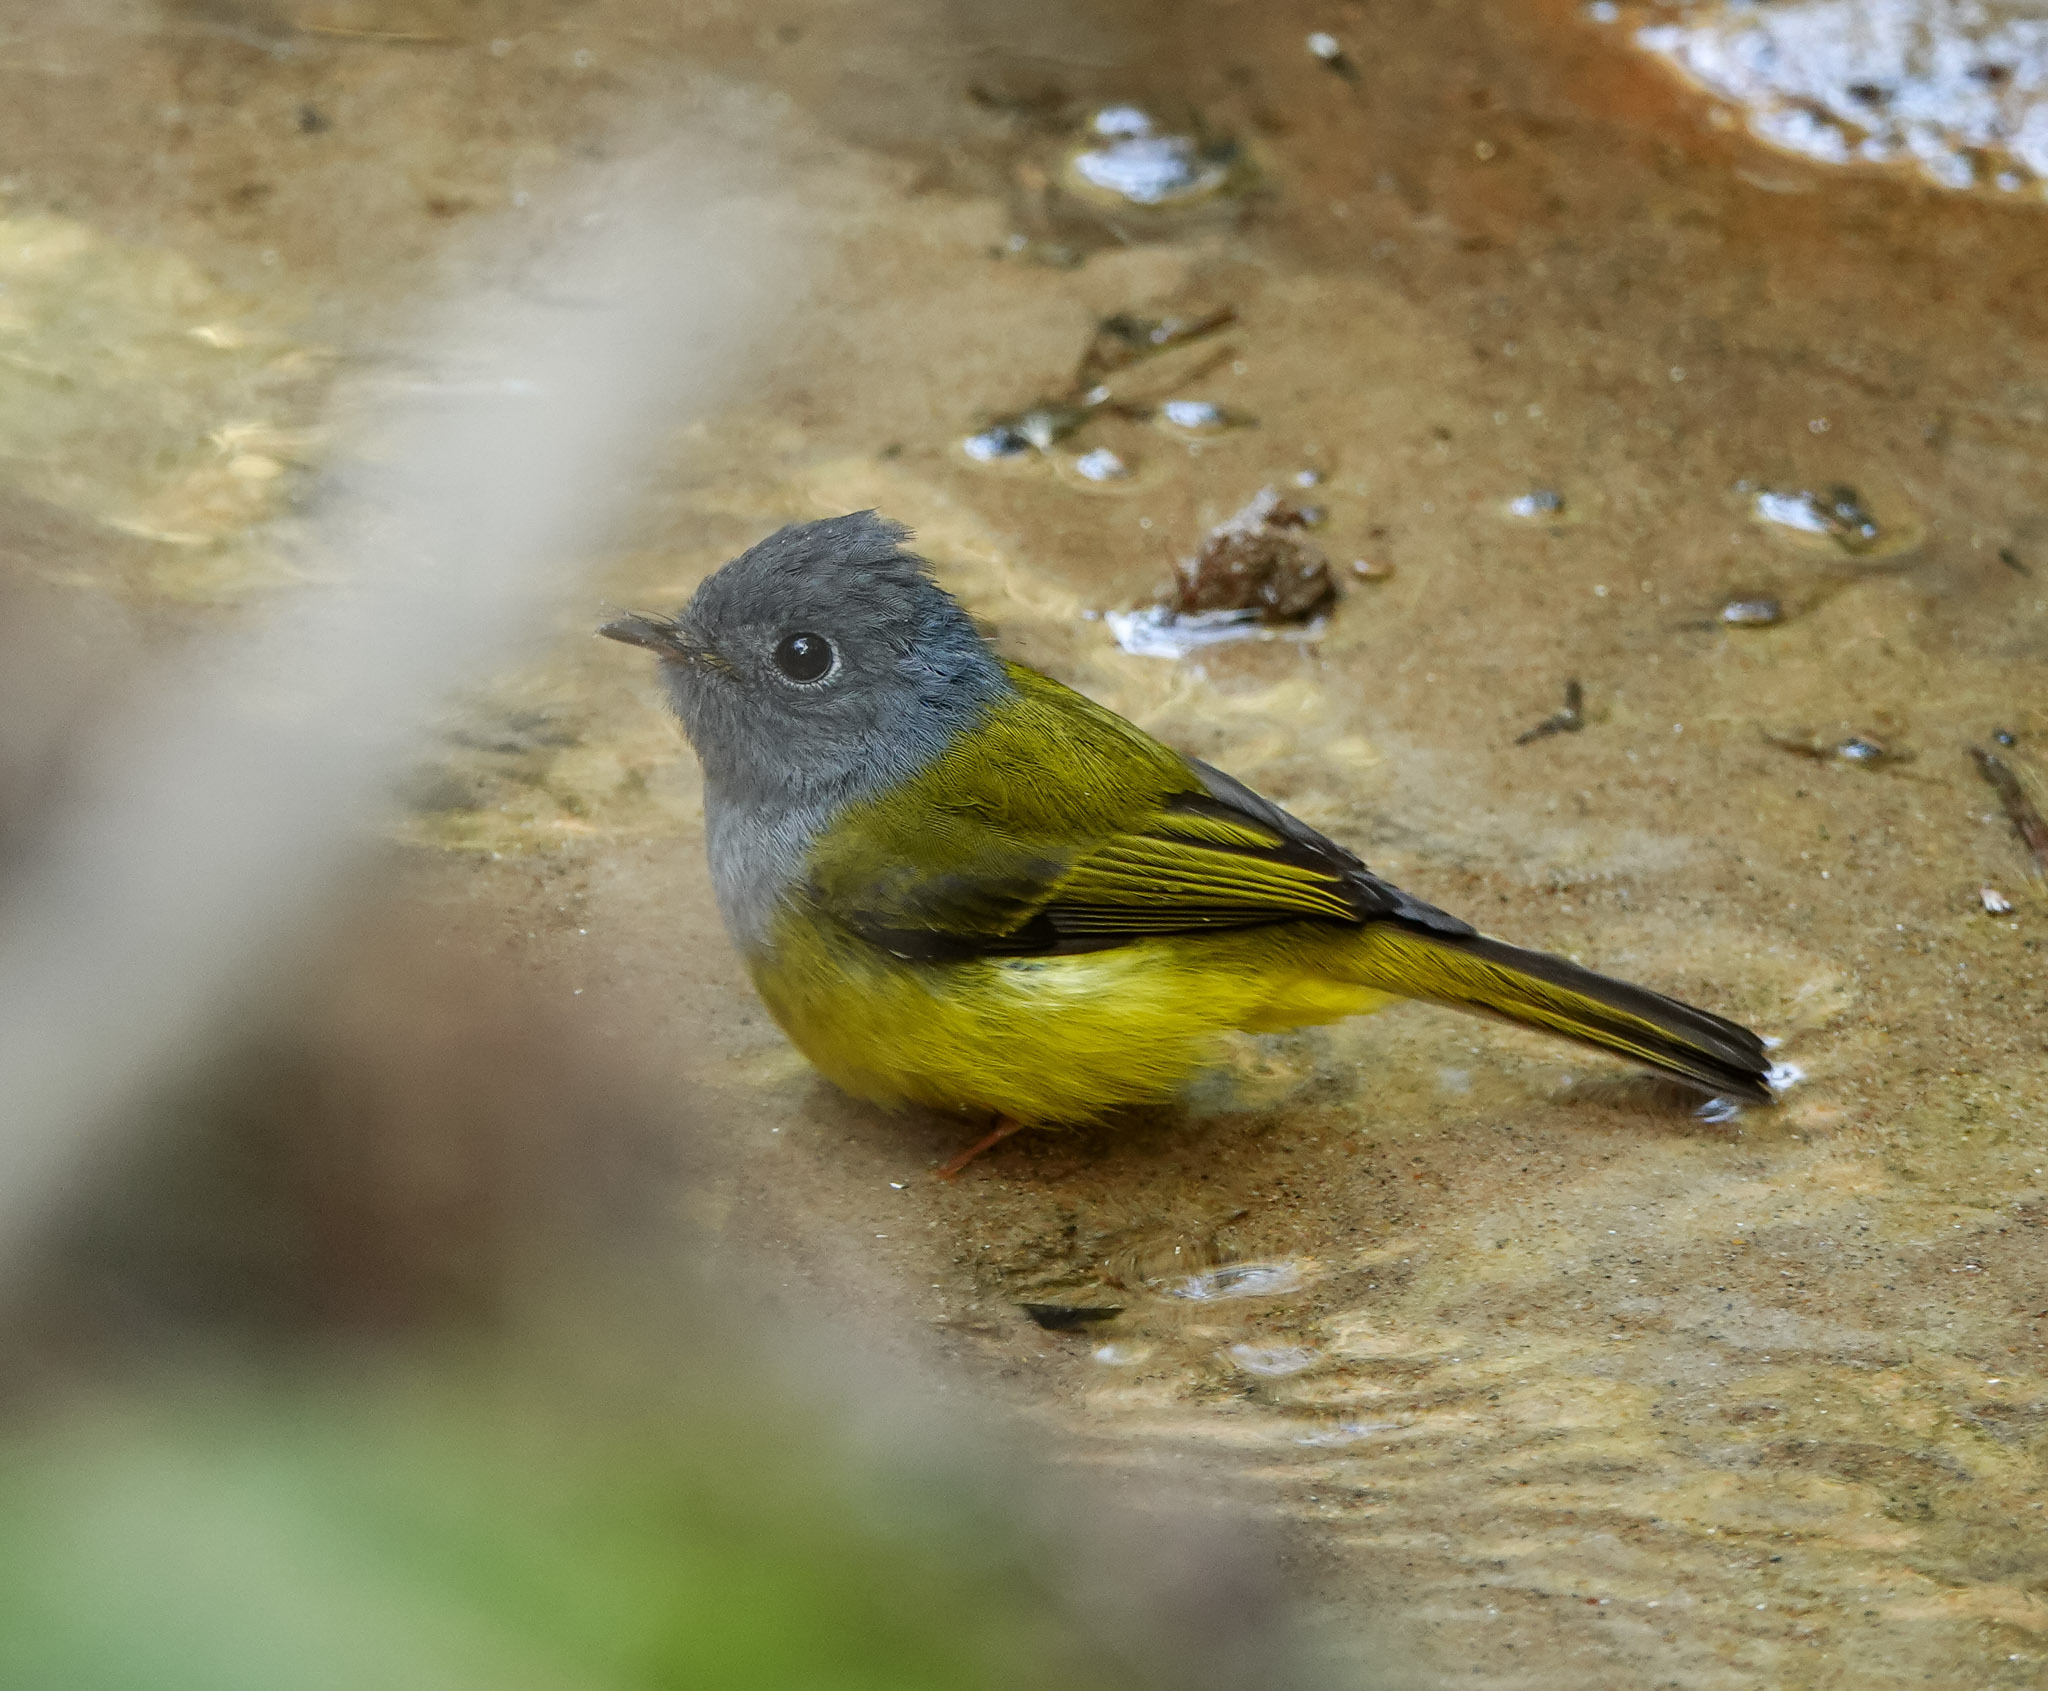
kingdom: Animalia
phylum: Chordata
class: Aves
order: Passeriformes
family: Stenostiridae
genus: Culicicapa
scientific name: Culicicapa ceylonensis
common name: Grey-headed canary-flycatcher
